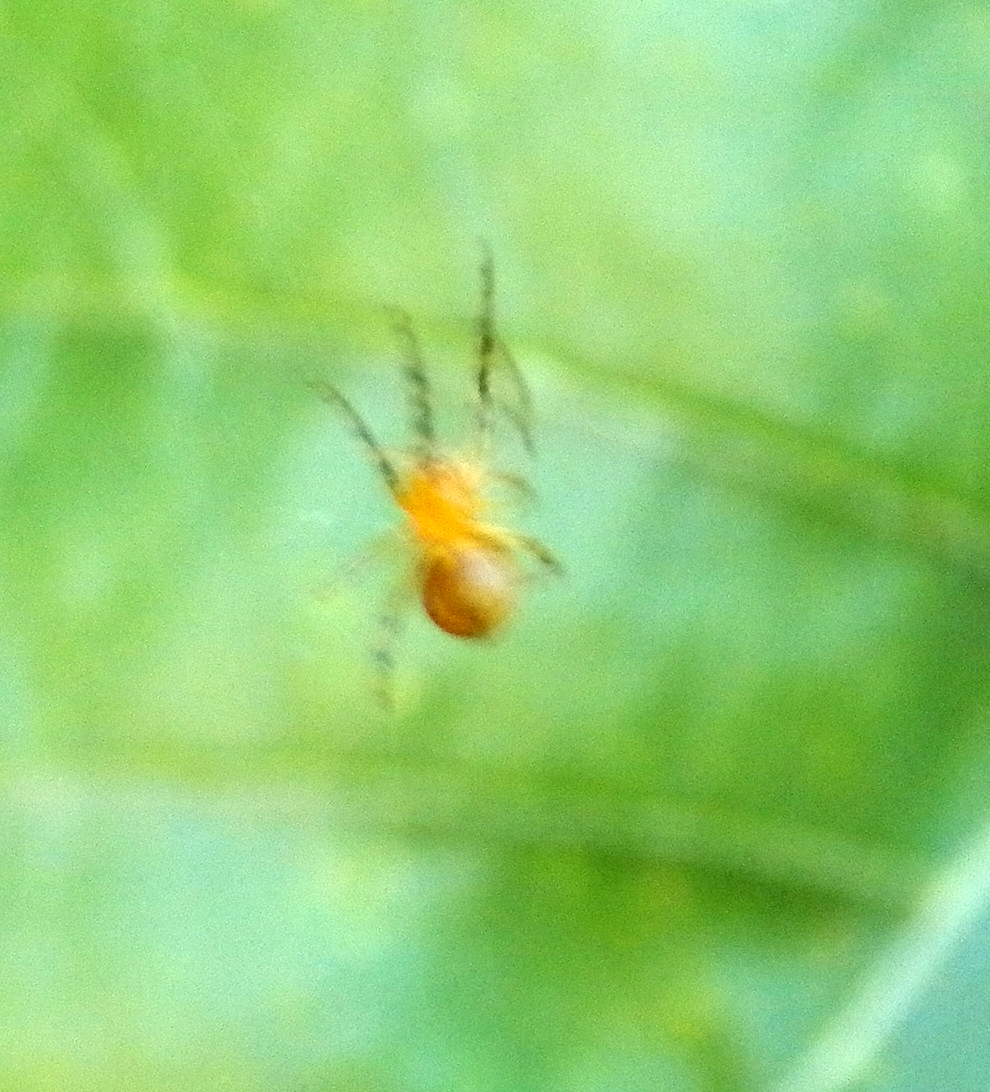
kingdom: Animalia
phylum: Arthropoda
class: Arachnida
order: Araneae
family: Araneidae
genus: Eriophora
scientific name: Eriophora ravilla
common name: Orb weavers
